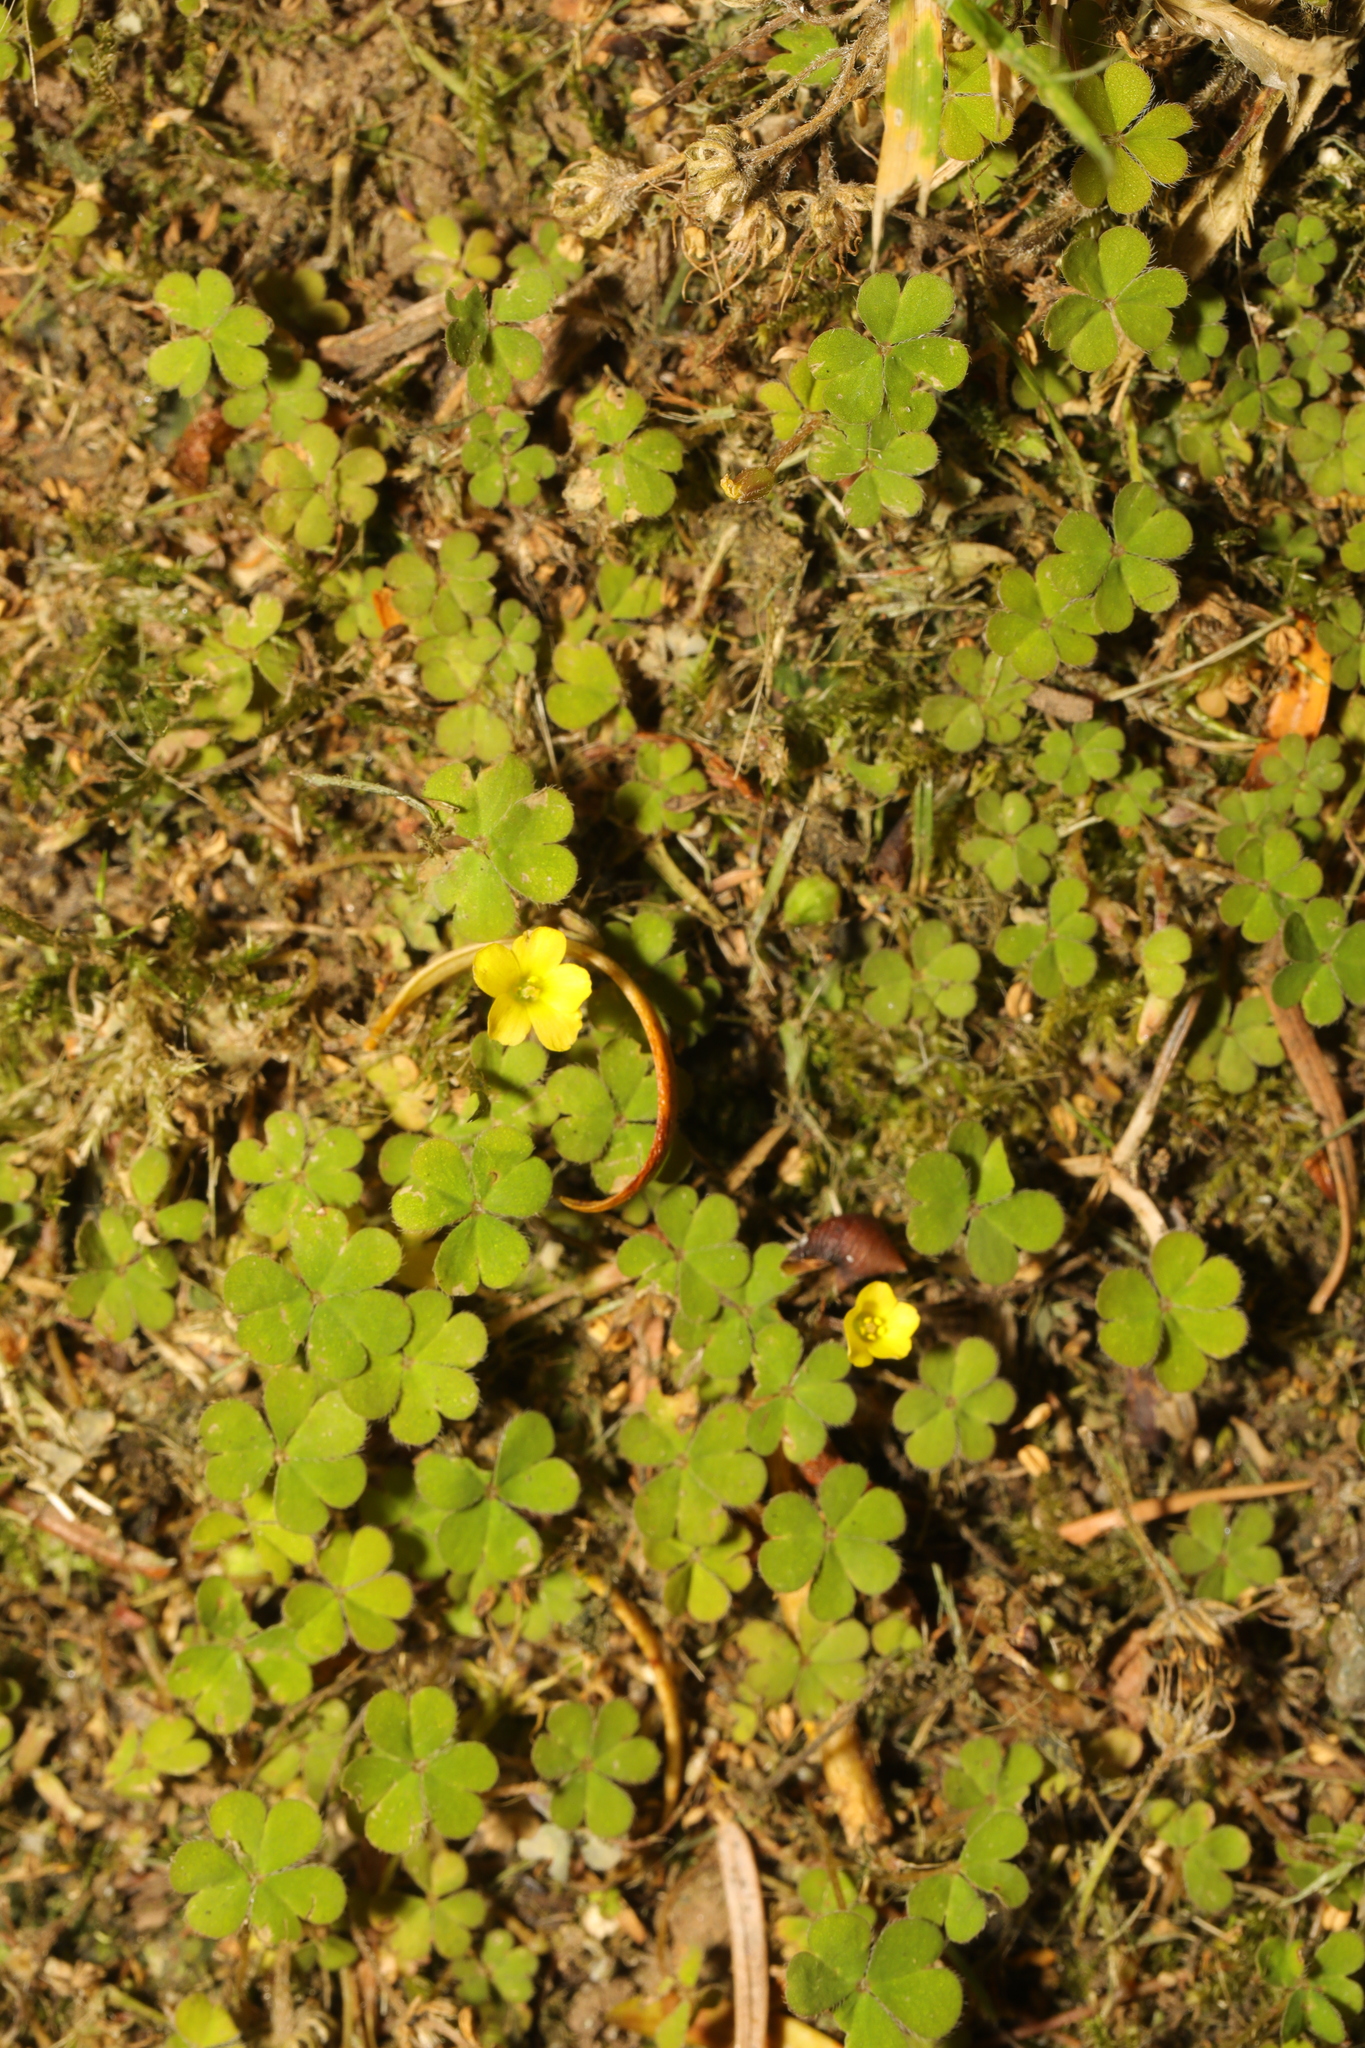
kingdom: Plantae
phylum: Tracheophyta
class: Magnoliopsida
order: Oxalidales
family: Oxalidaceae
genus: Oxalis
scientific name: Oxalis exilis
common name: Least yellow-sorrel
